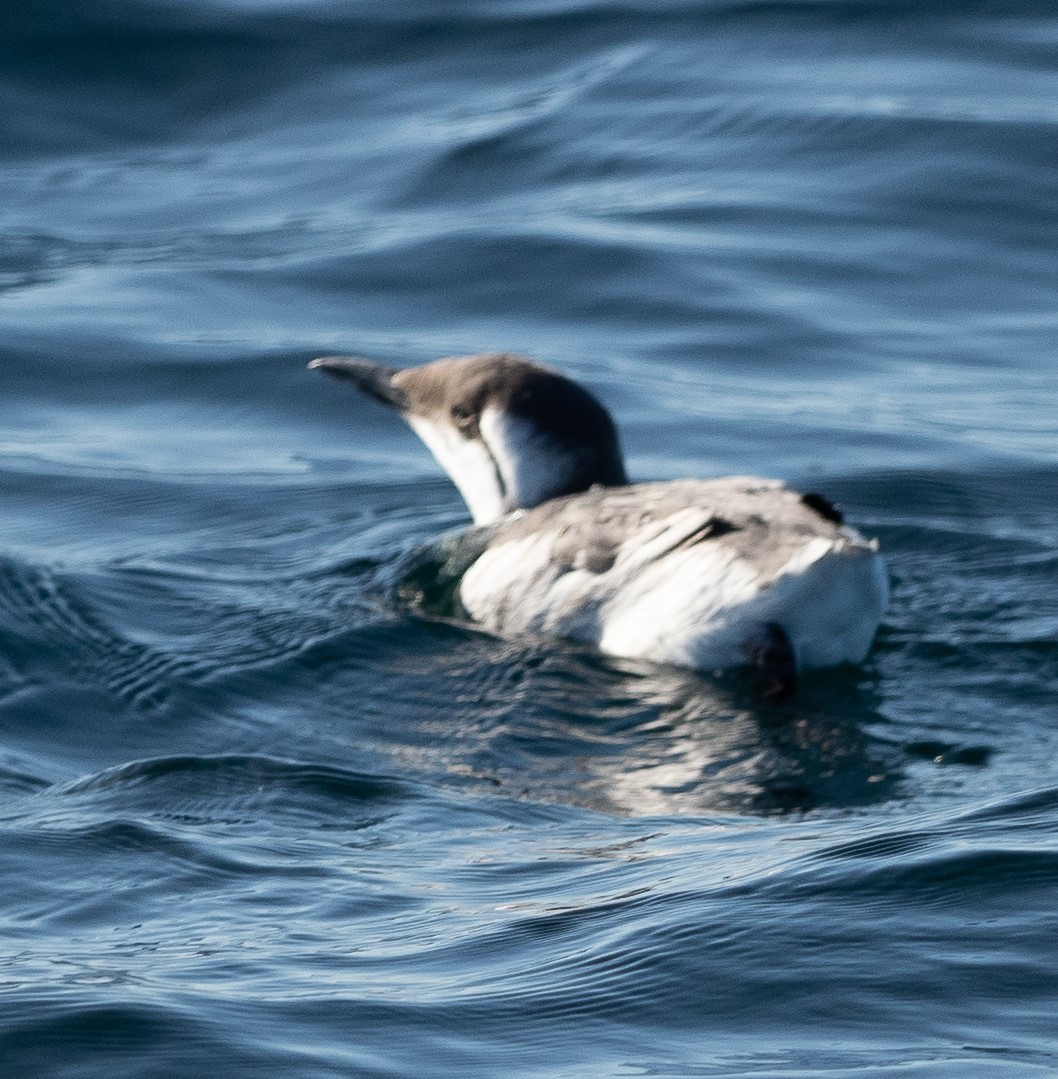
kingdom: Animalia
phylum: Chordata
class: Aves
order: Charadriiformes
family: Alcidae
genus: Uria
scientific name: Uria aalge
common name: Common murre
